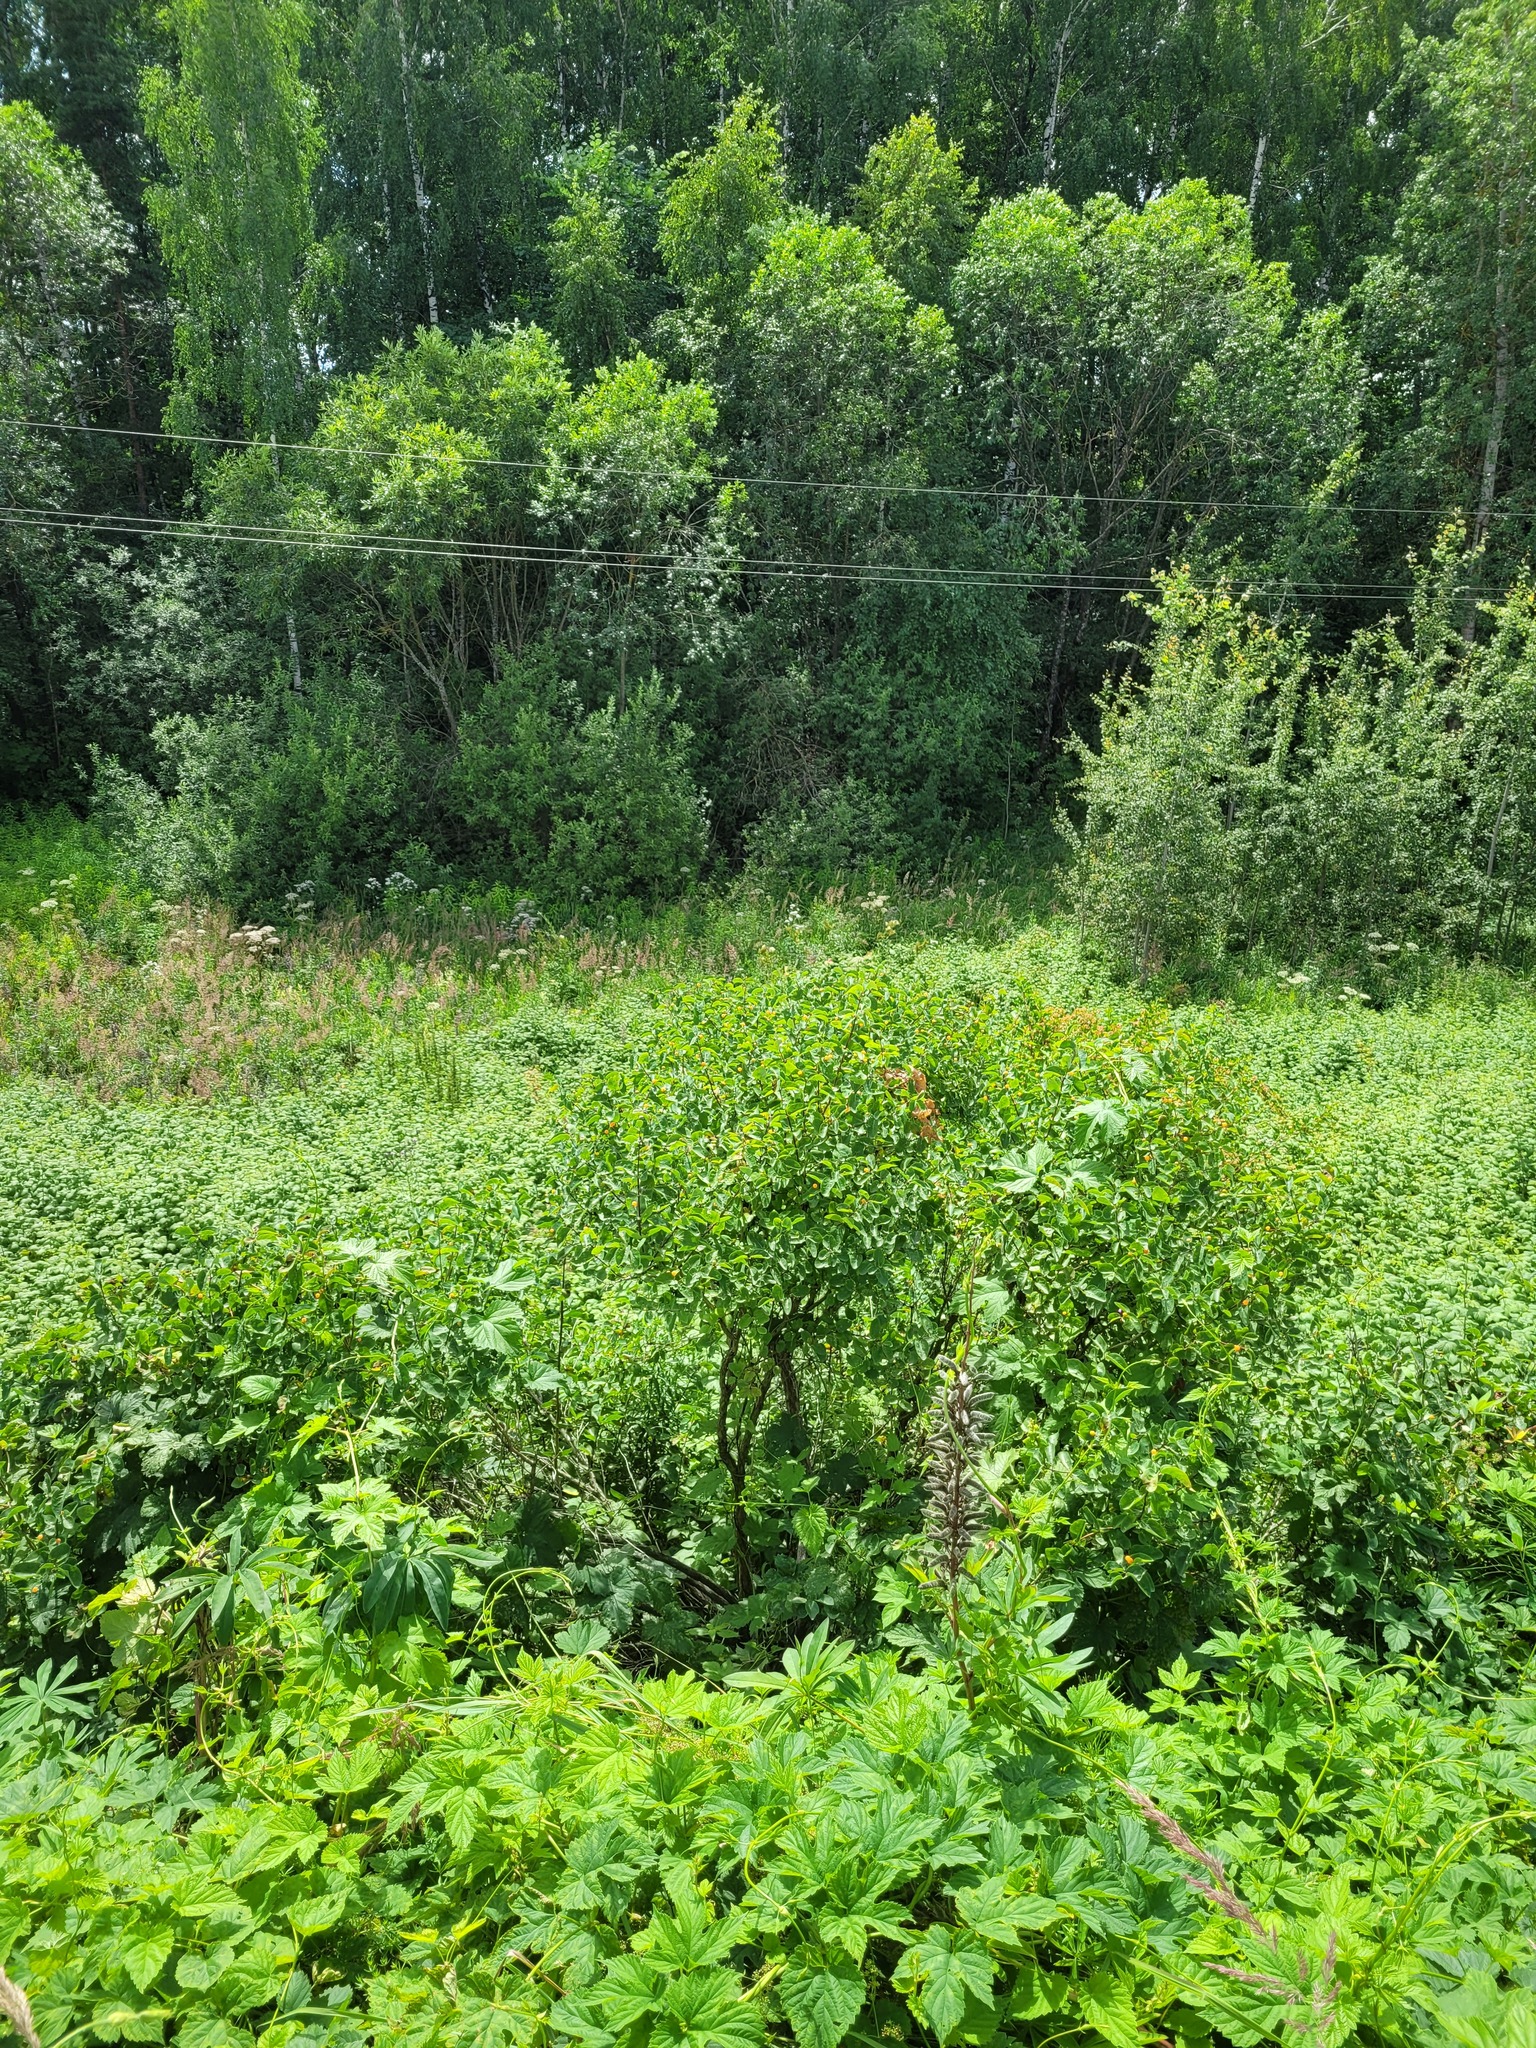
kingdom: Plantae
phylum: Tracheophyta
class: Magnoliopsida
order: Dipsacales
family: Caprifoliaceae
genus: Lonicera
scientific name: Lonicera tatarica
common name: Tatarian honeysuckle
